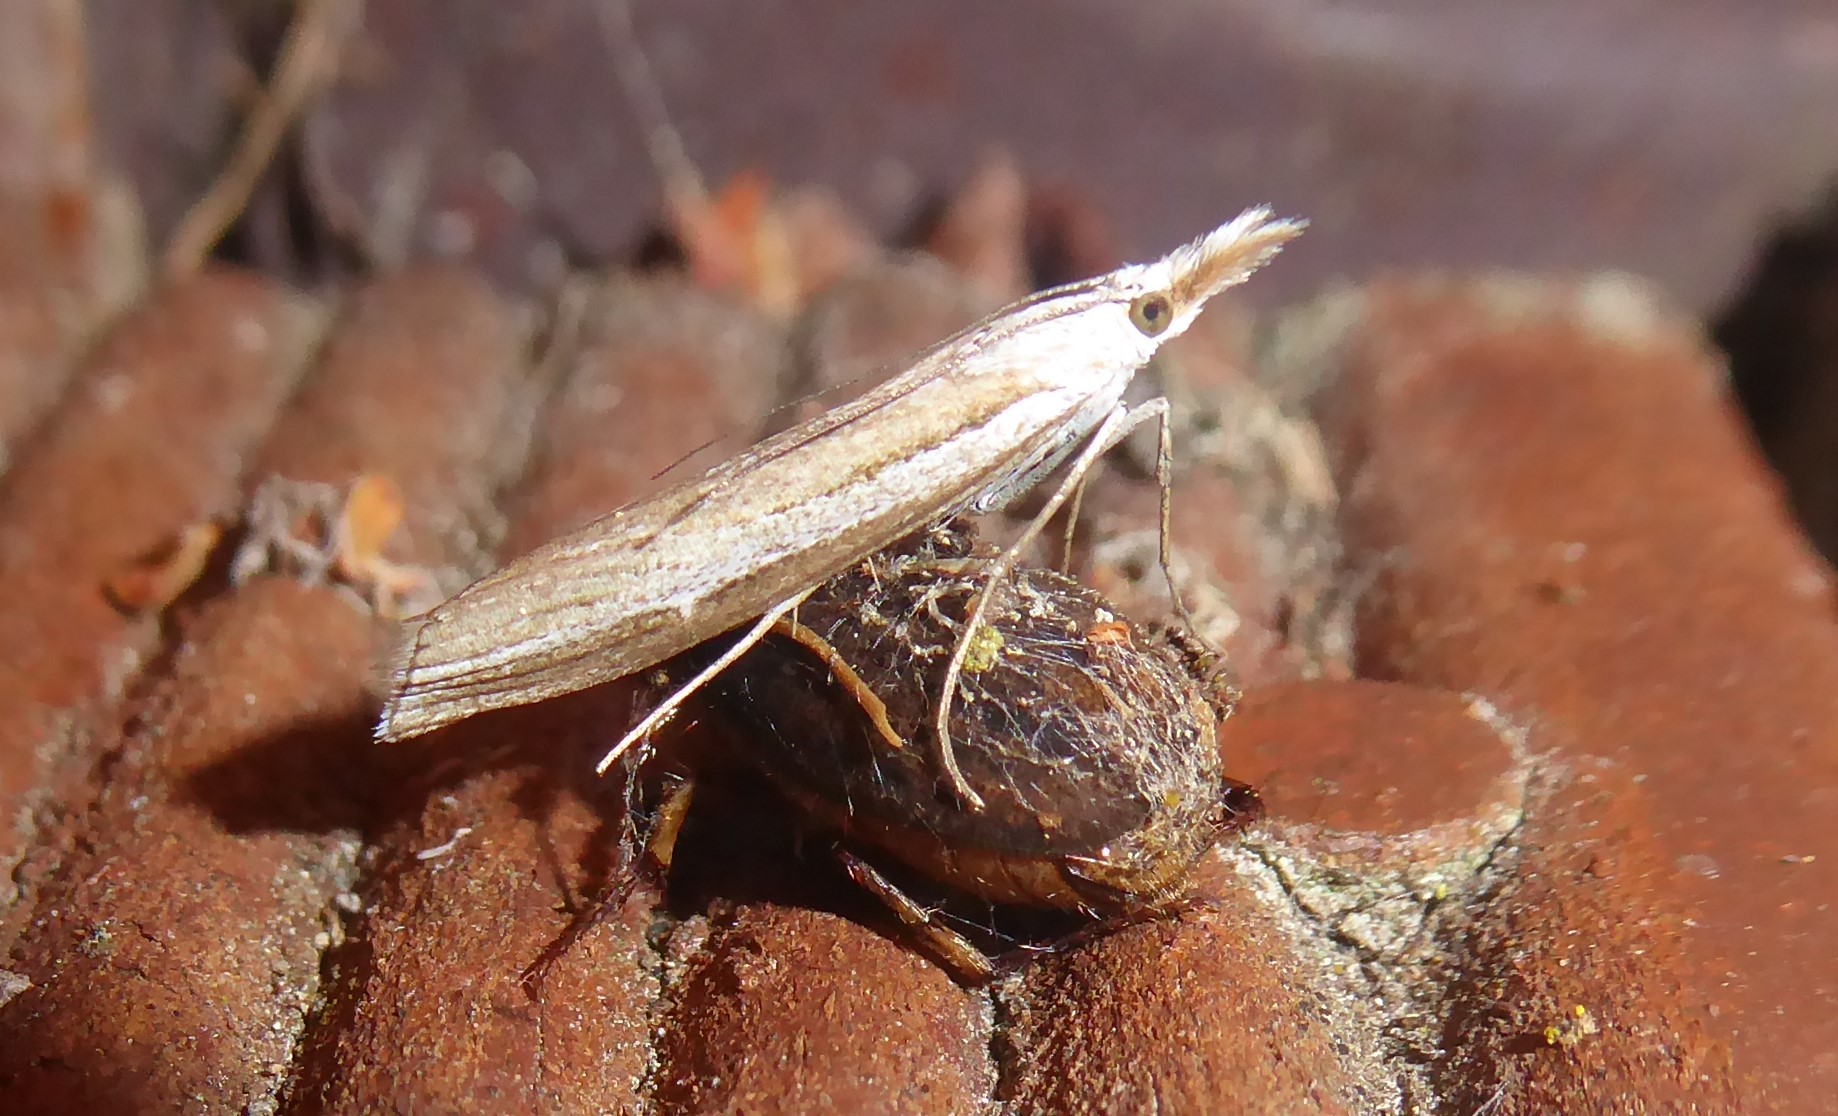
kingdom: Animalia
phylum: Arthropoda
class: Insecta
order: Lepidoptera
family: Crambidae
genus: Orocrambus
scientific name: Orocrambus vittellus
